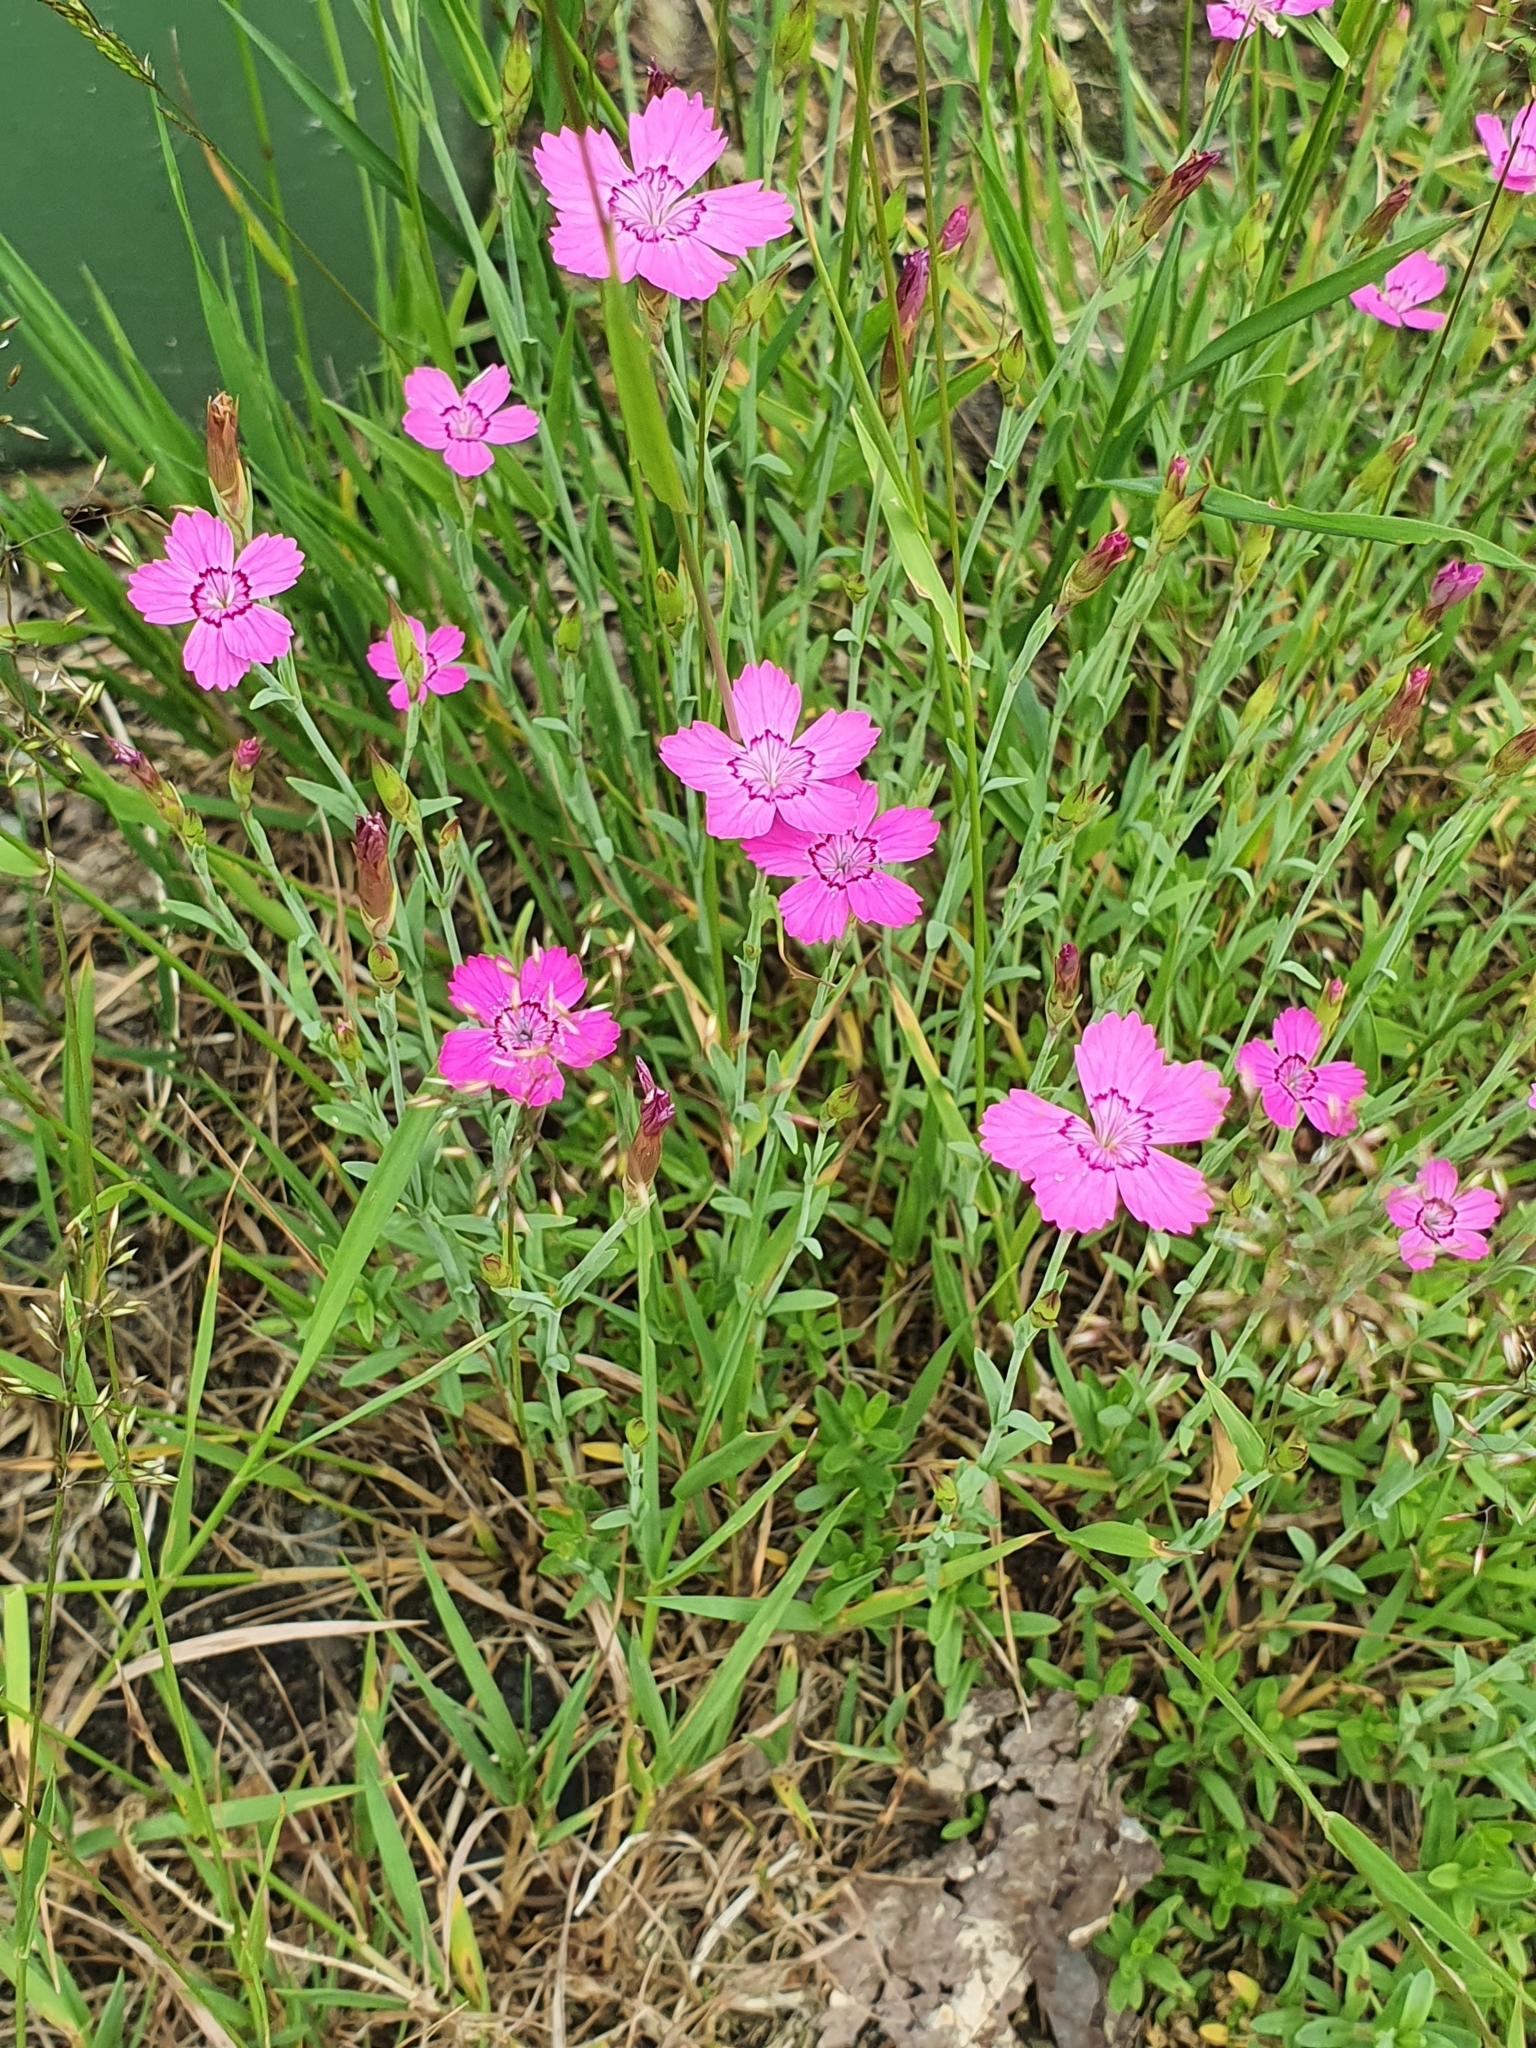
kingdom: Plantae
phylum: Tracheophyta
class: Magnoliopsida
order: Caryophyllales
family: Caryophyllaceae
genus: Dianthus
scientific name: Dianthus deltoides
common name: Maiden pink
